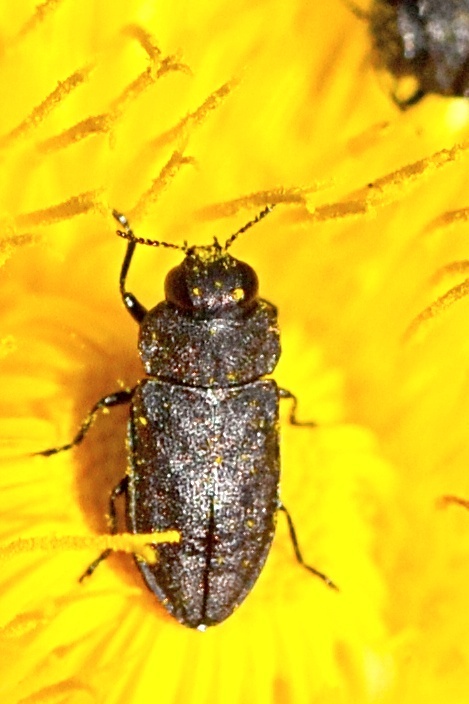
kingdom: Animalia
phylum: Arthropoda
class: Insecta
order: Coleoptera
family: Buprestidae
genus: Anthaxia
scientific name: Anthaxia helvetica
